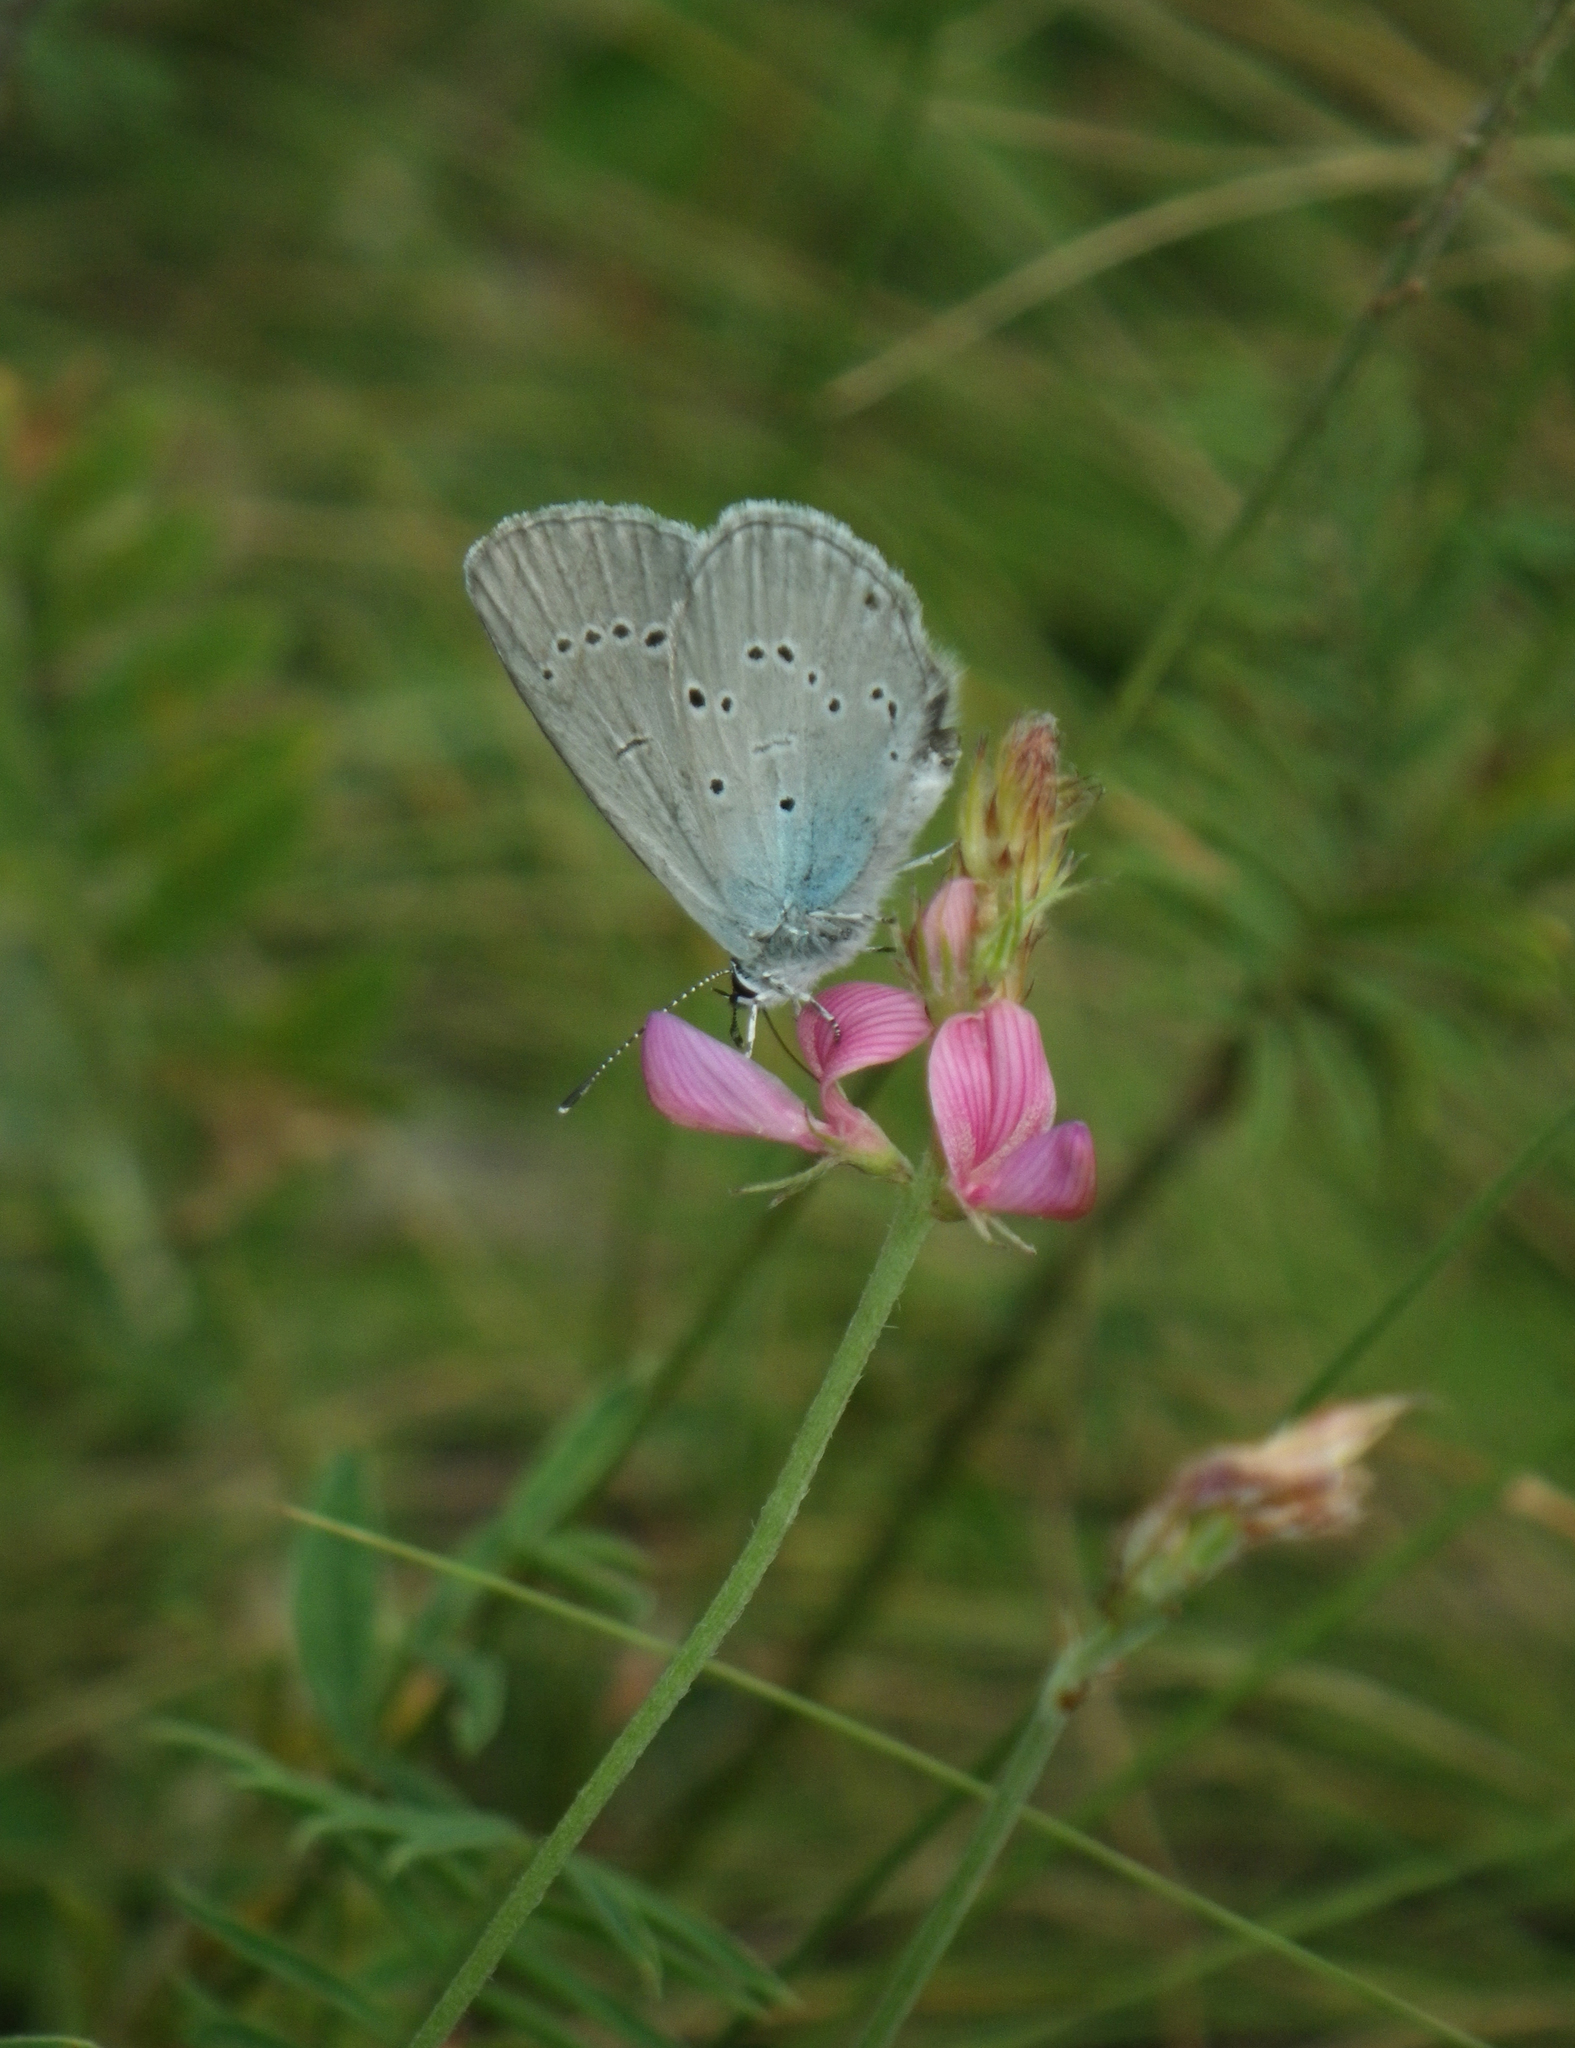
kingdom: Plantae
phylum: Tracheophyta
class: Magnoliopsida
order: Fabales
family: Fabaceae
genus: Onobrychis
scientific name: Onobrychis arenaria
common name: Sand esparcet
